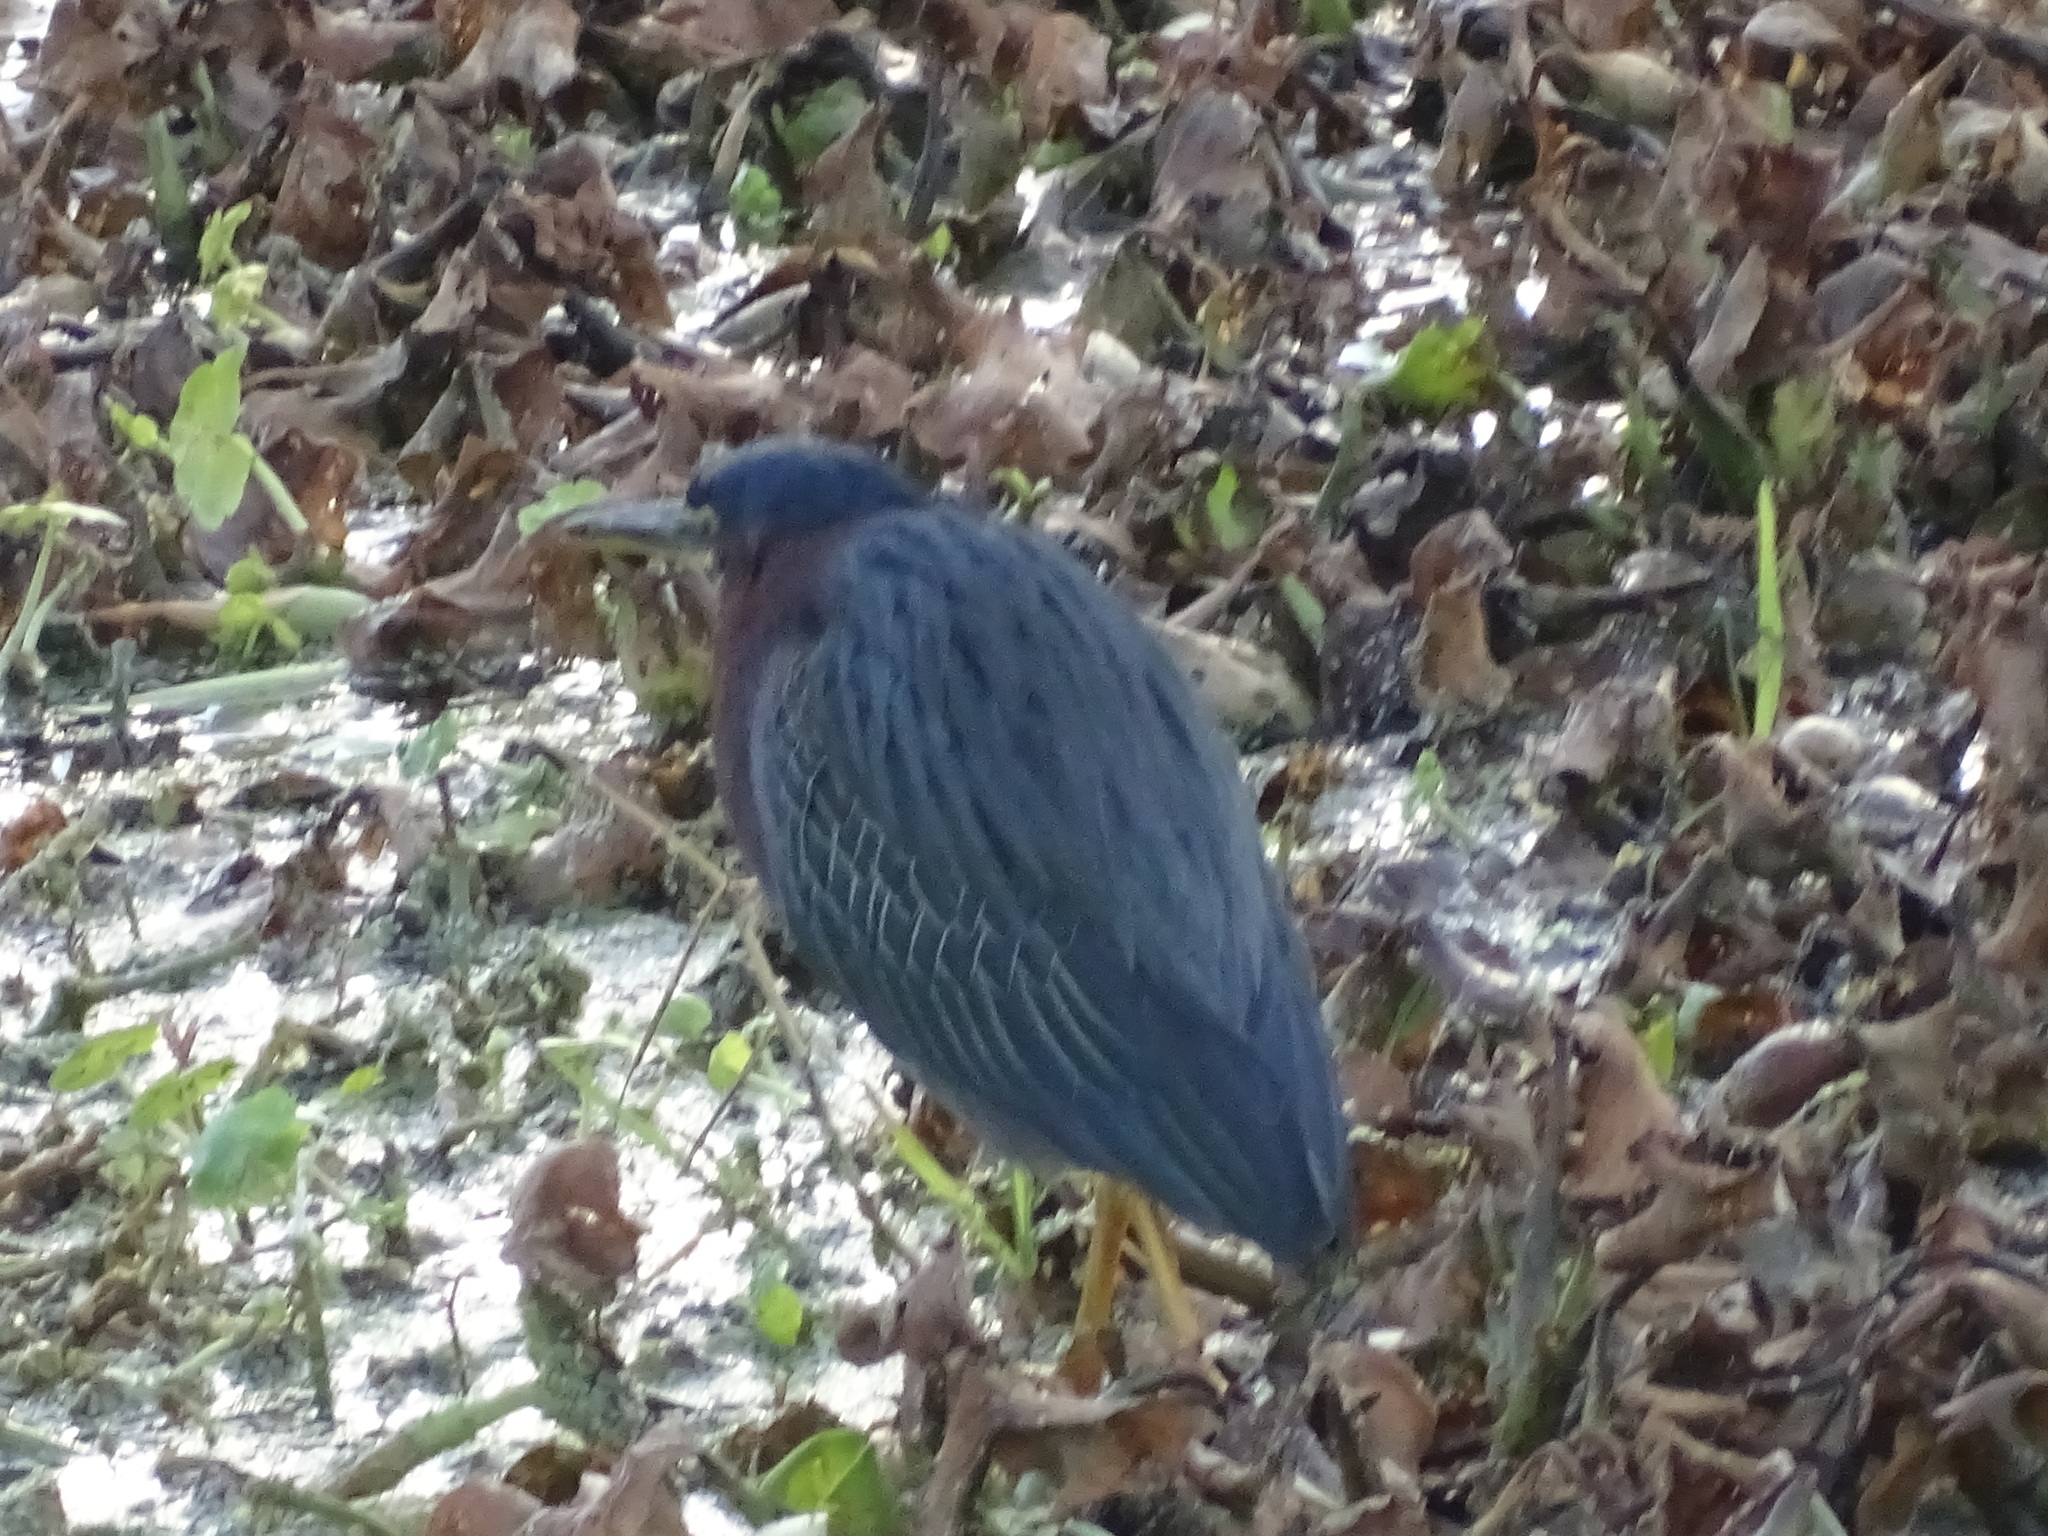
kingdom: Animalia
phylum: Chordata
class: Aves
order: Pelecaniformes
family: Ardeidae
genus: Butorides
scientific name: Butorides virescens
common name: Green heron
